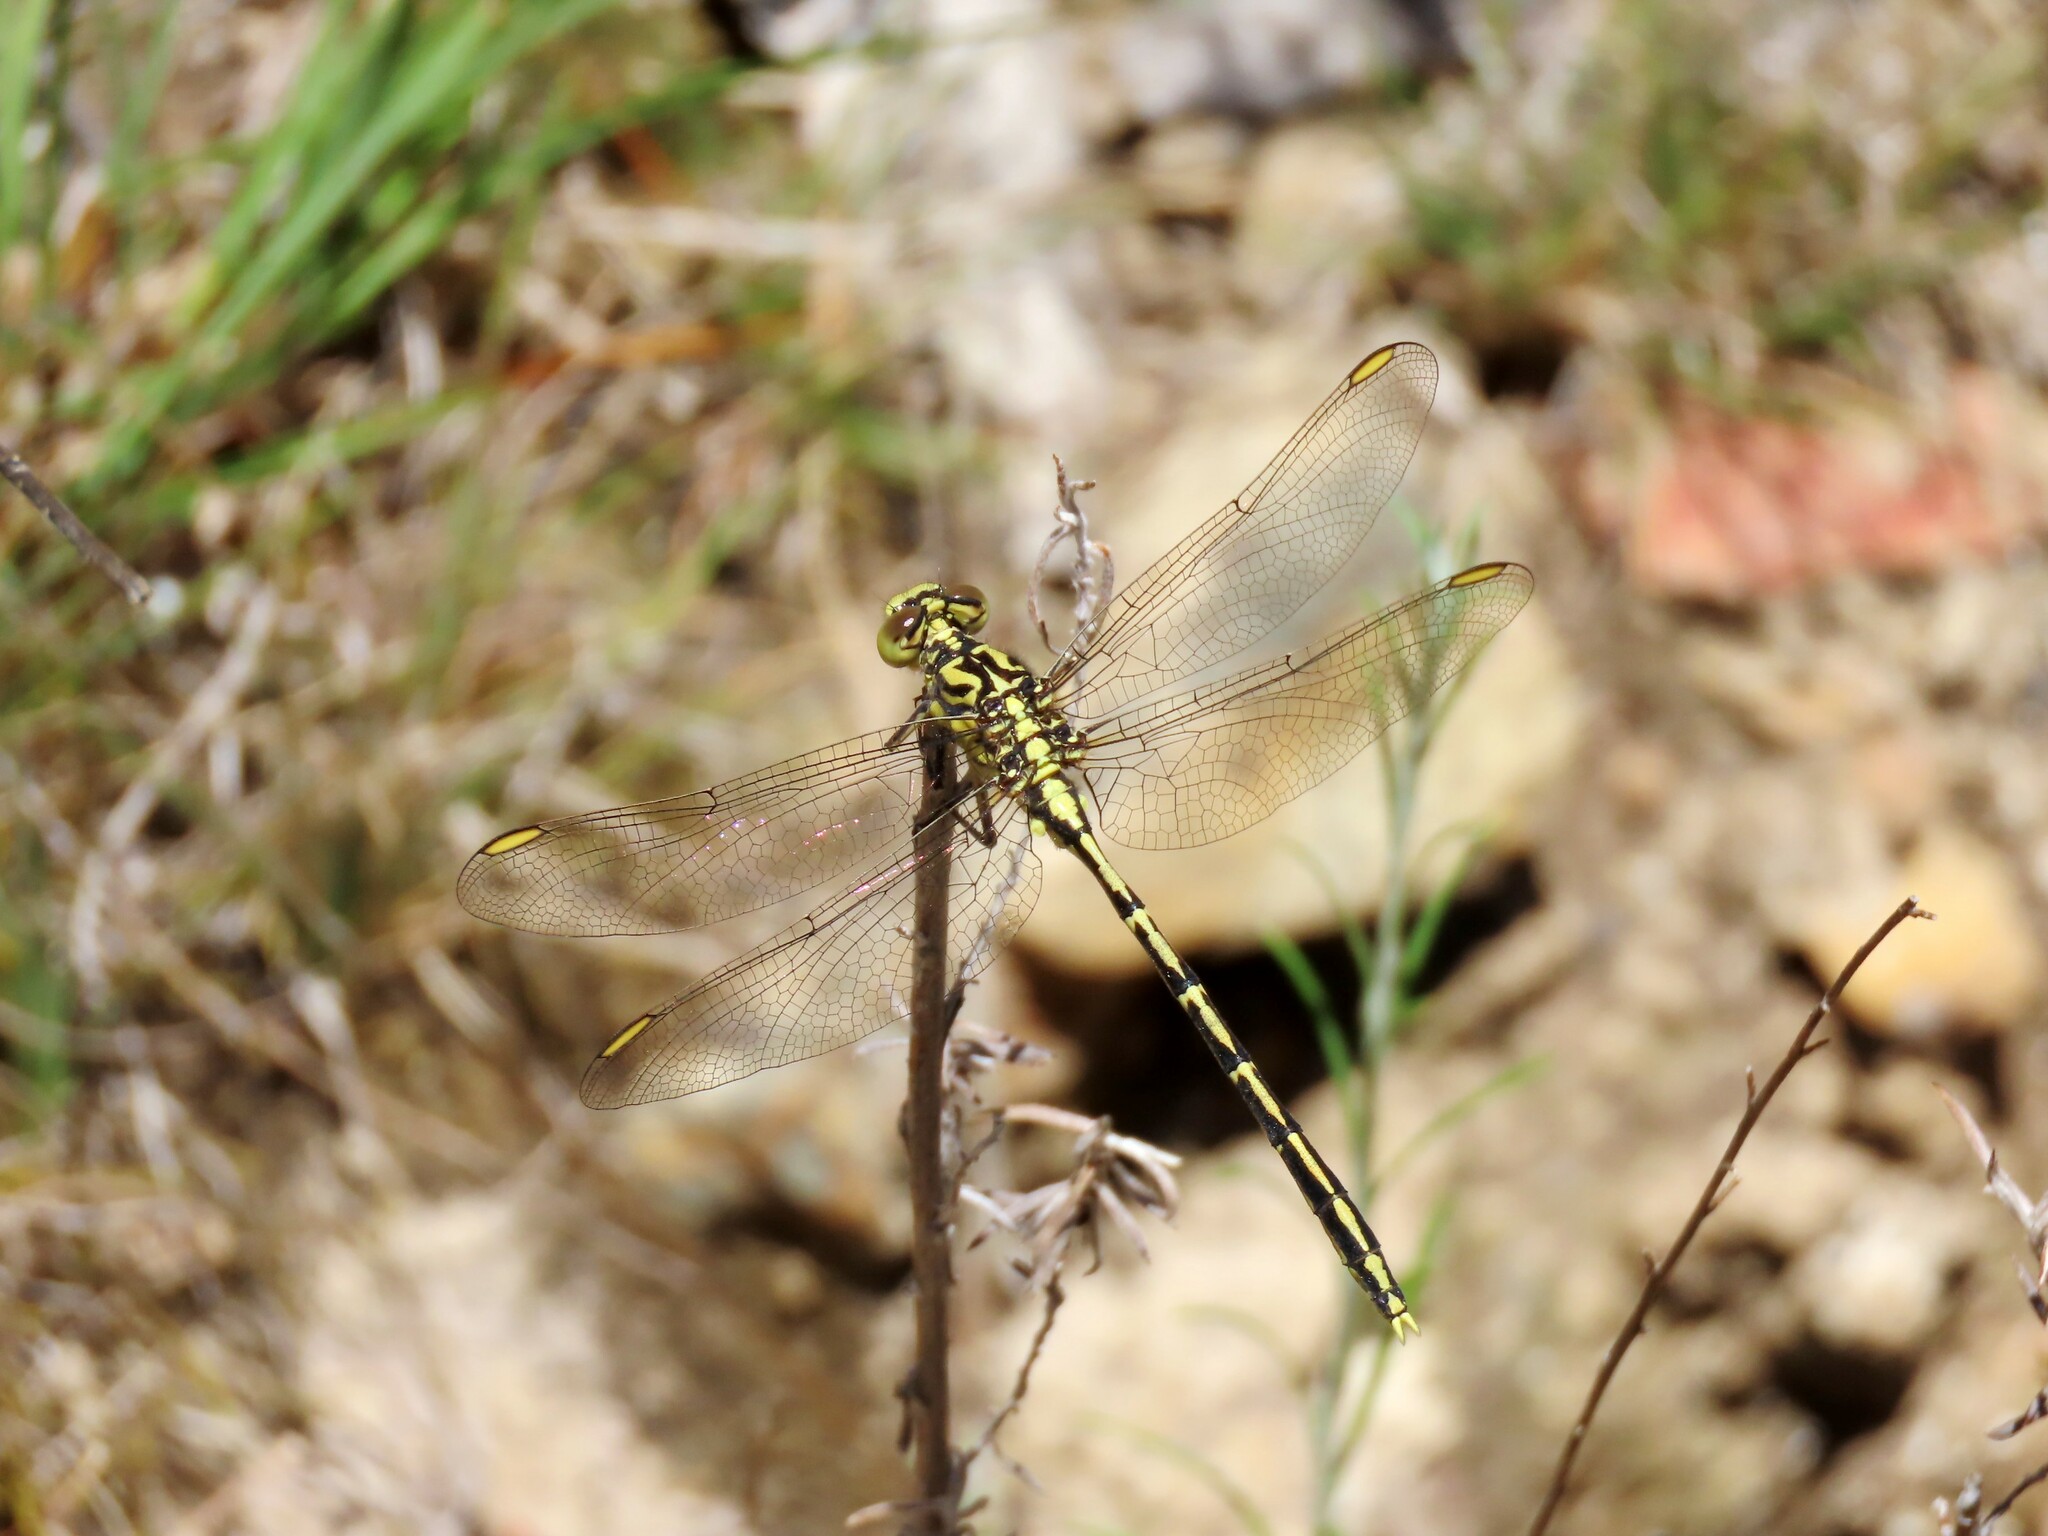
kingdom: Animalia
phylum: Arthropoda
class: Insecta
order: Odonata
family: Gomphidae
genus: Austrogomphus
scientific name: Austrogomphus guerini
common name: Yellow-striped hunter
